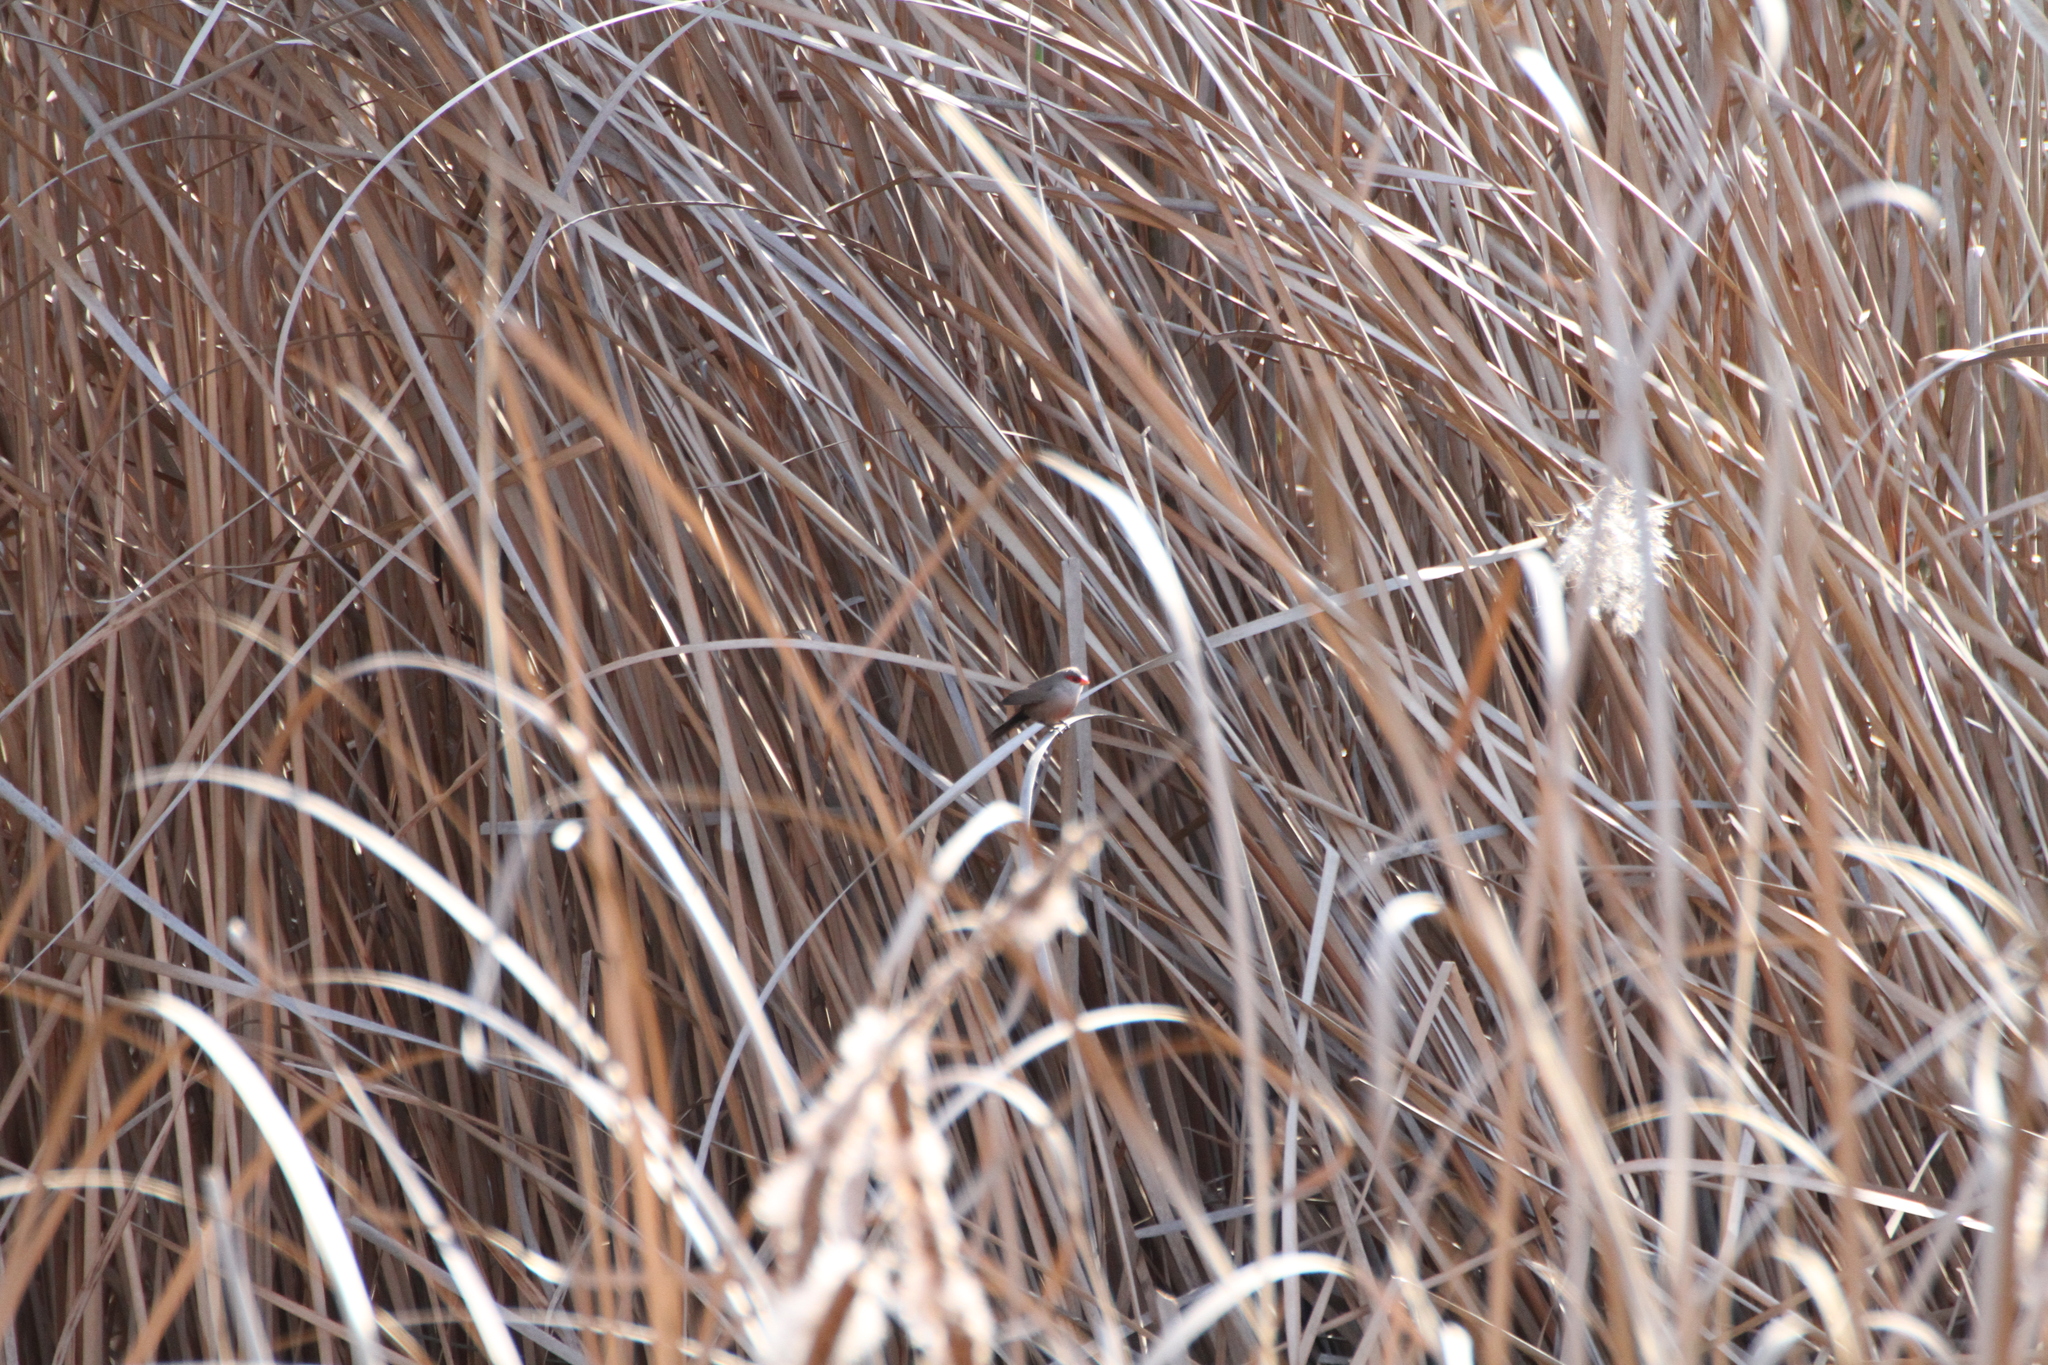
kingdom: Animalia
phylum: Chordata
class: Aves
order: Passeriformes
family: Estrildidae
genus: Estrilda
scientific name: Estrilda astrild
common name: Common waxbill
